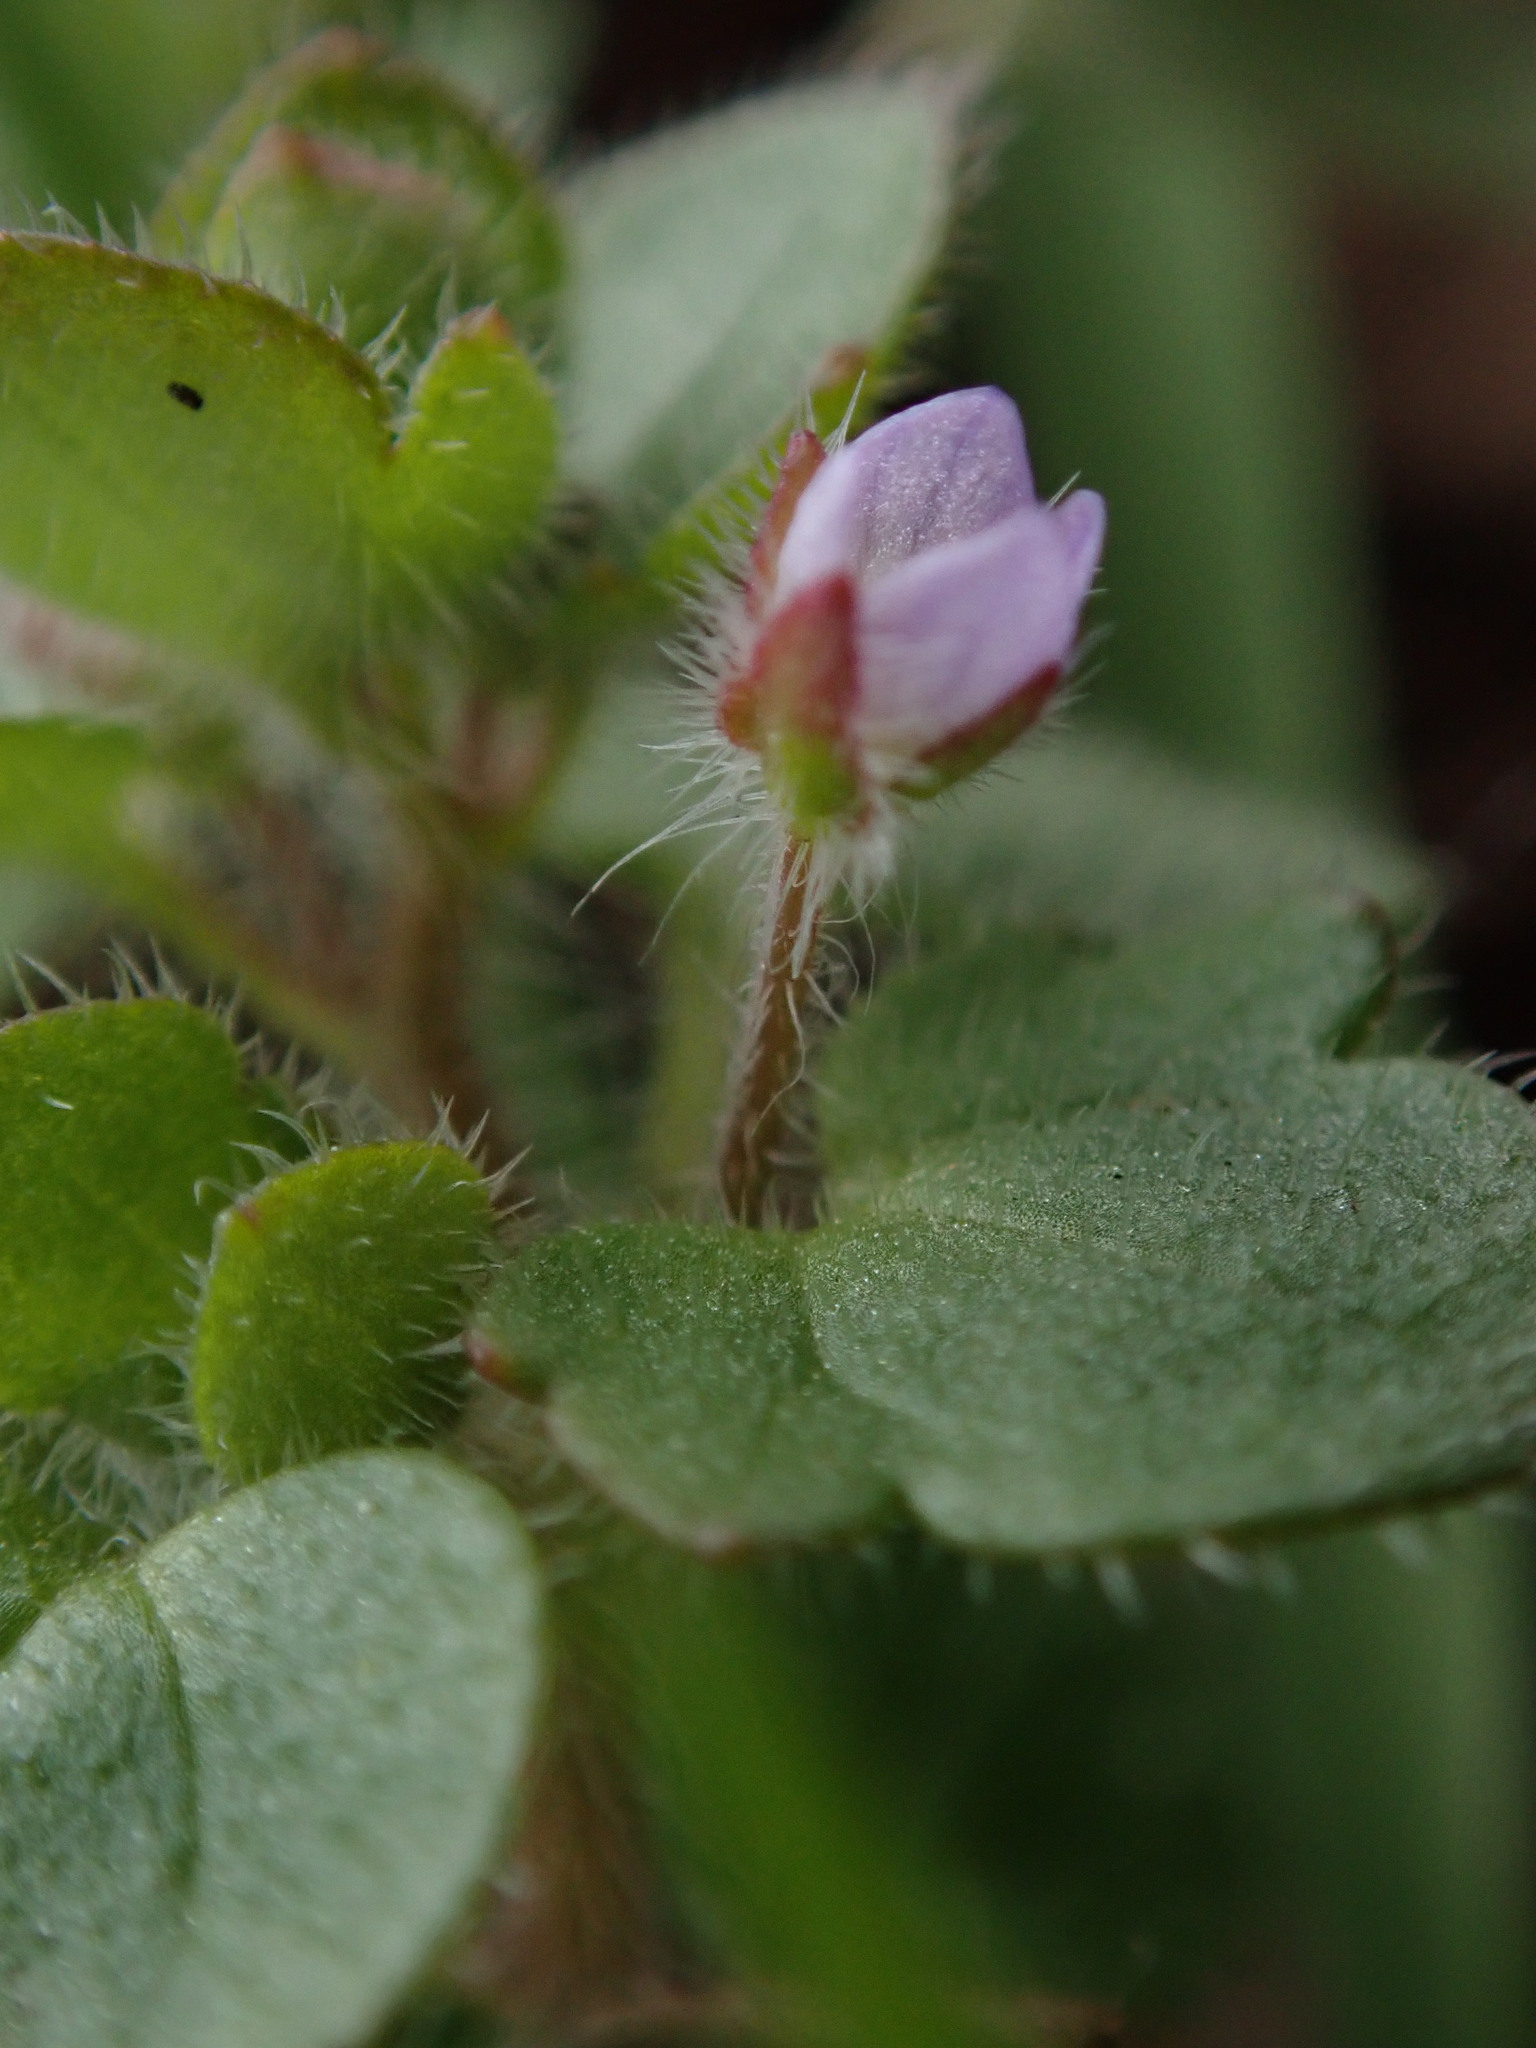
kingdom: Plantae
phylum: Tracheophyta
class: Magnoliopsida
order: Lamiales
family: Plantaginaceae
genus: Veronica
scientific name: Veronica sublobata
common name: False ivy-leaved speedwell
